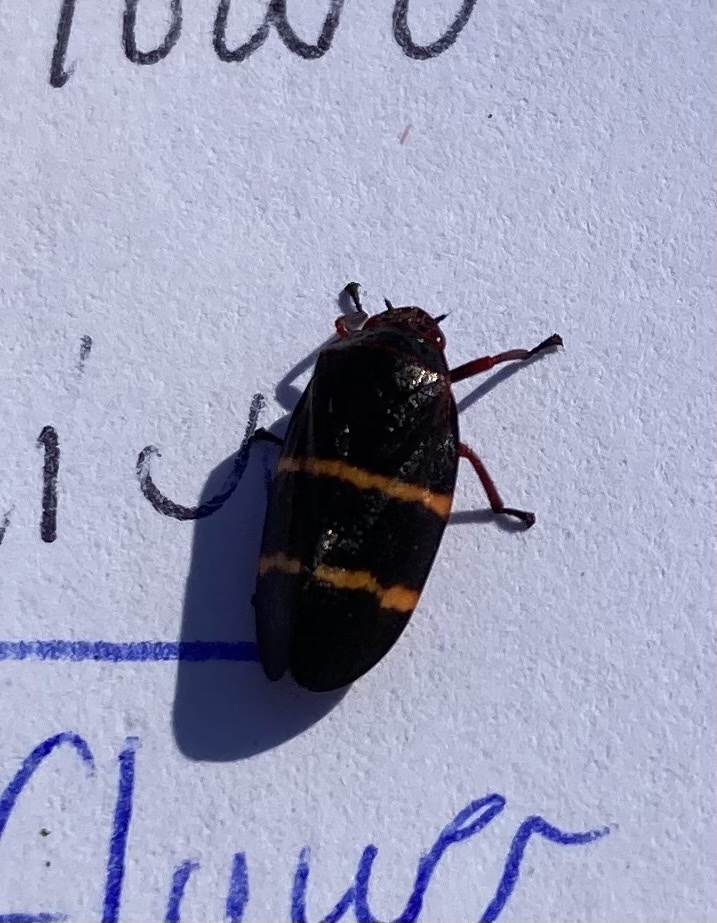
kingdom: Animalia
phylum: Arthropoda
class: Insecta
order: Hemiptera
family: Cercopidae
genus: Prosapia
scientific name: Prosapia bicincta
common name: Twolined spittlebug
